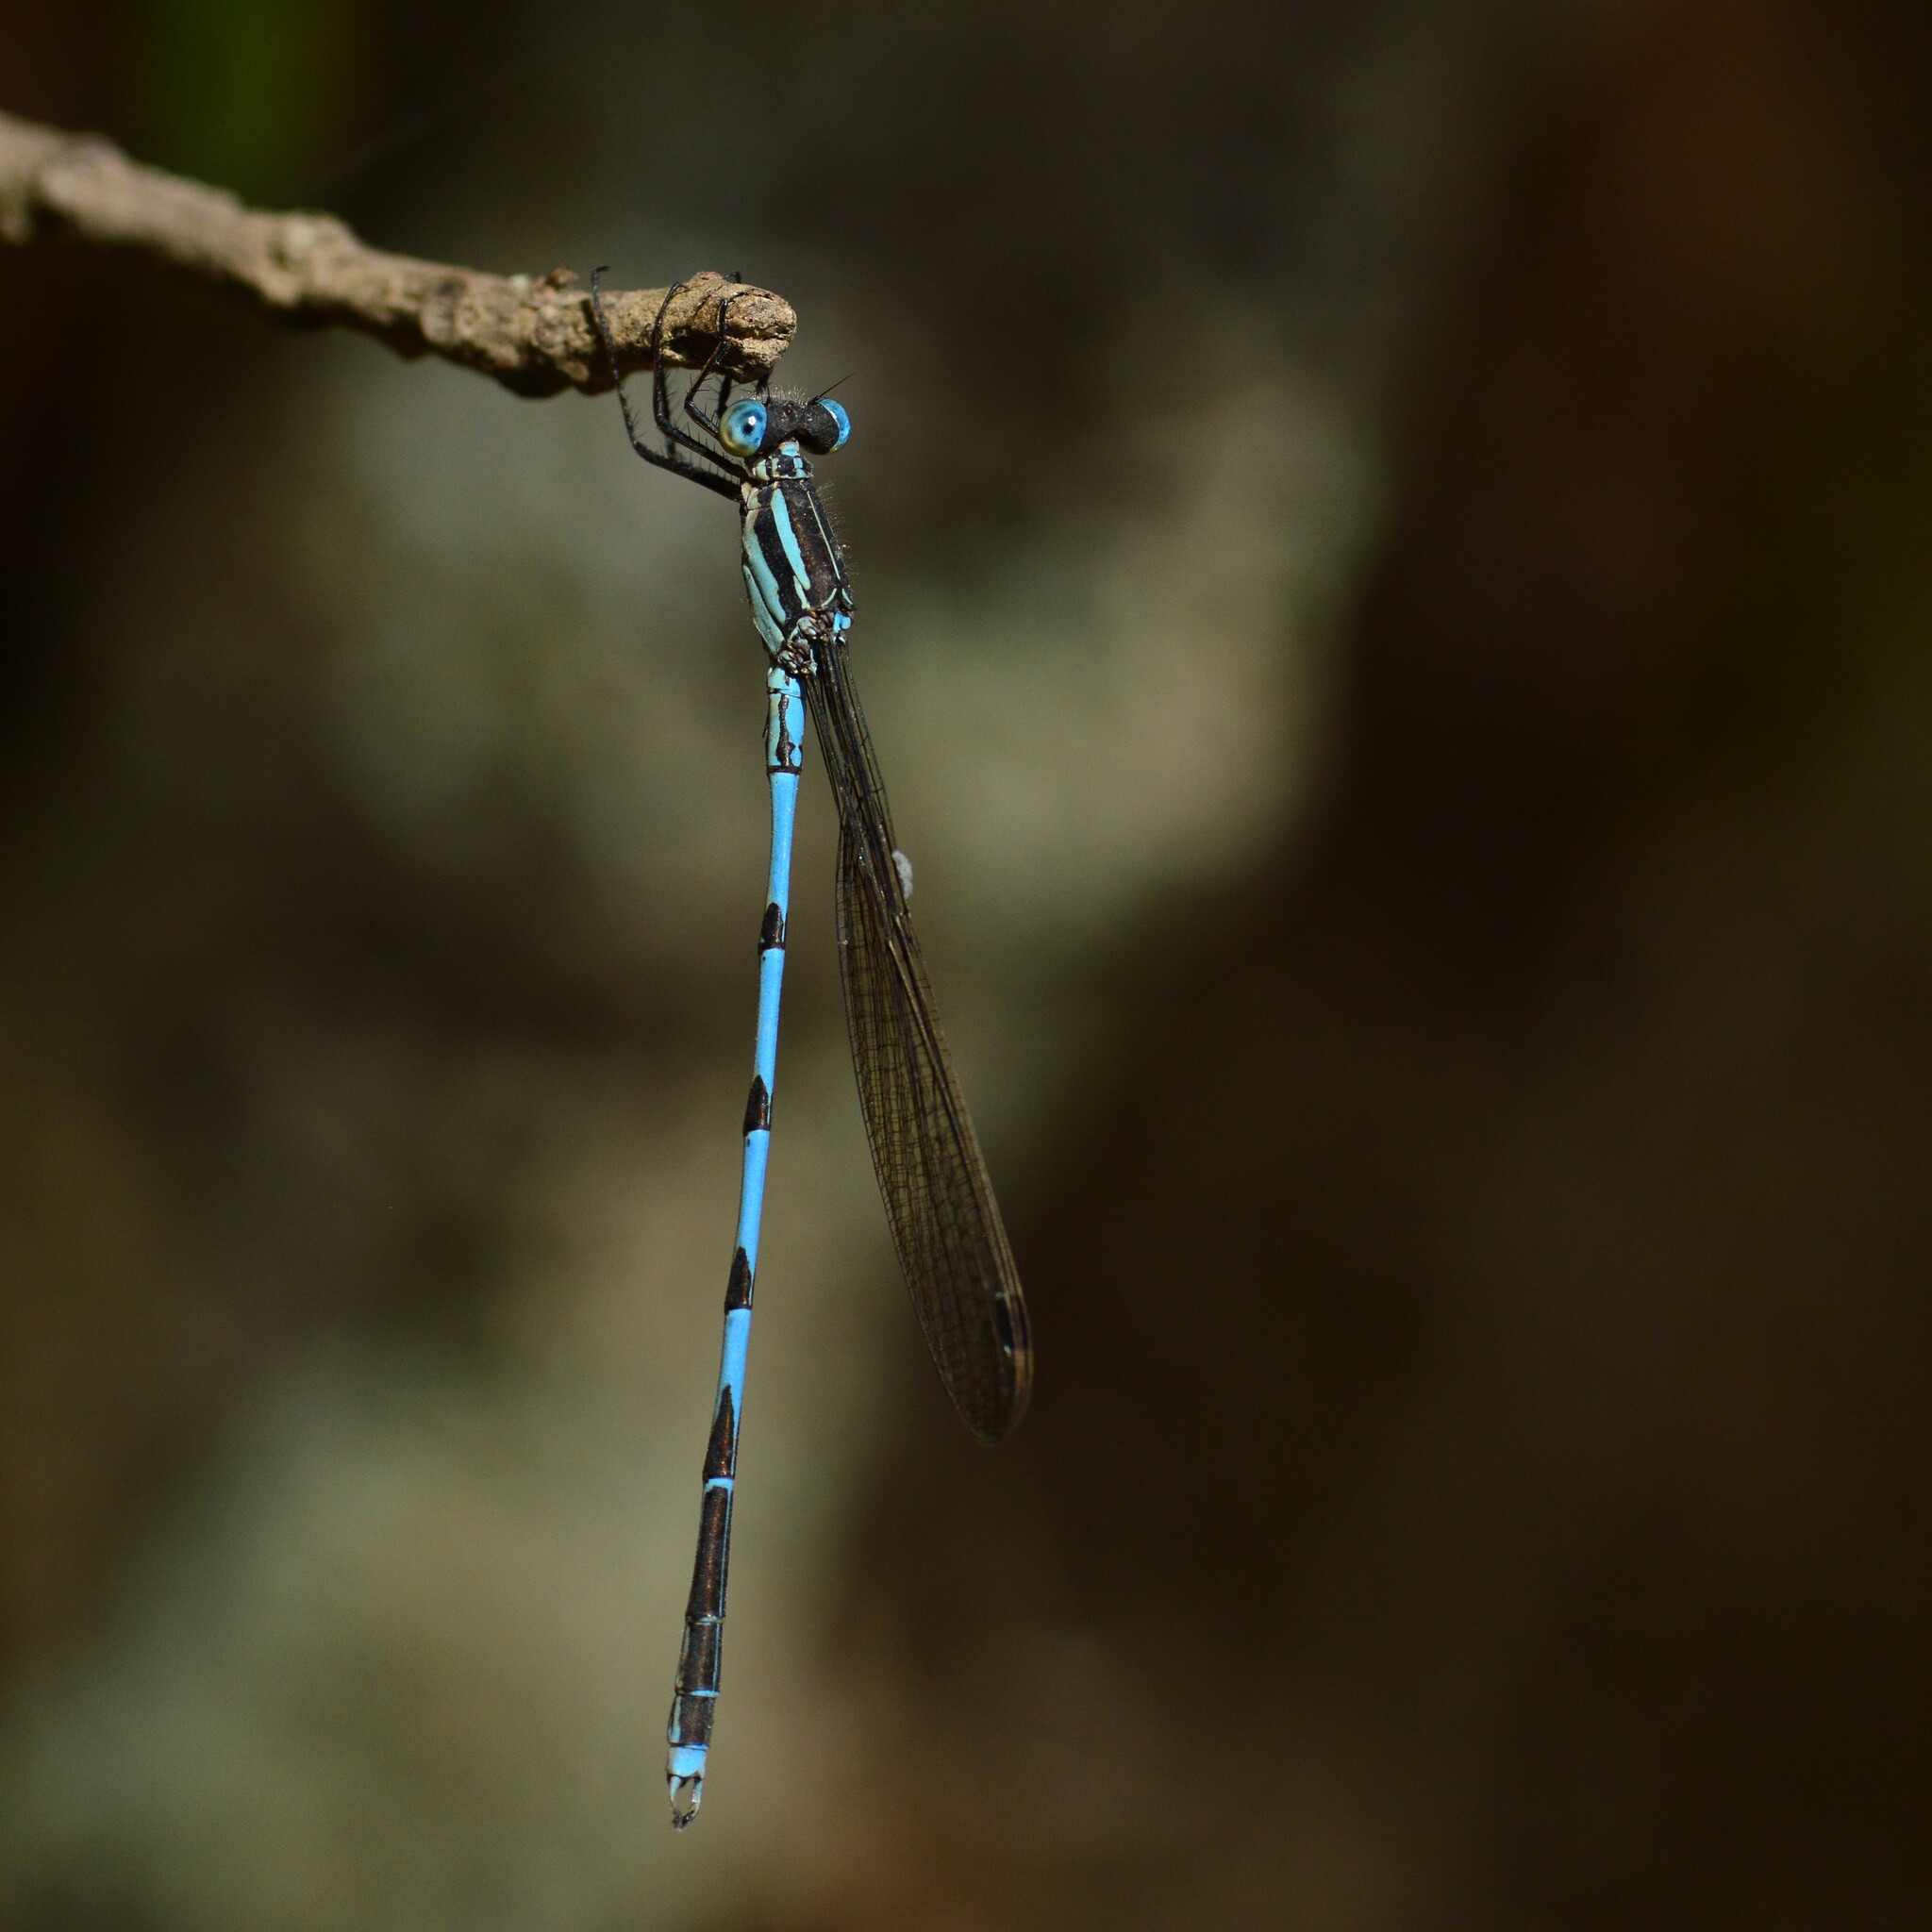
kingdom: Animalia
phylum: Arthropoda
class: Insecta
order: Odonata
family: Lestidae
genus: Indolestes
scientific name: Indolestes cyaneus
